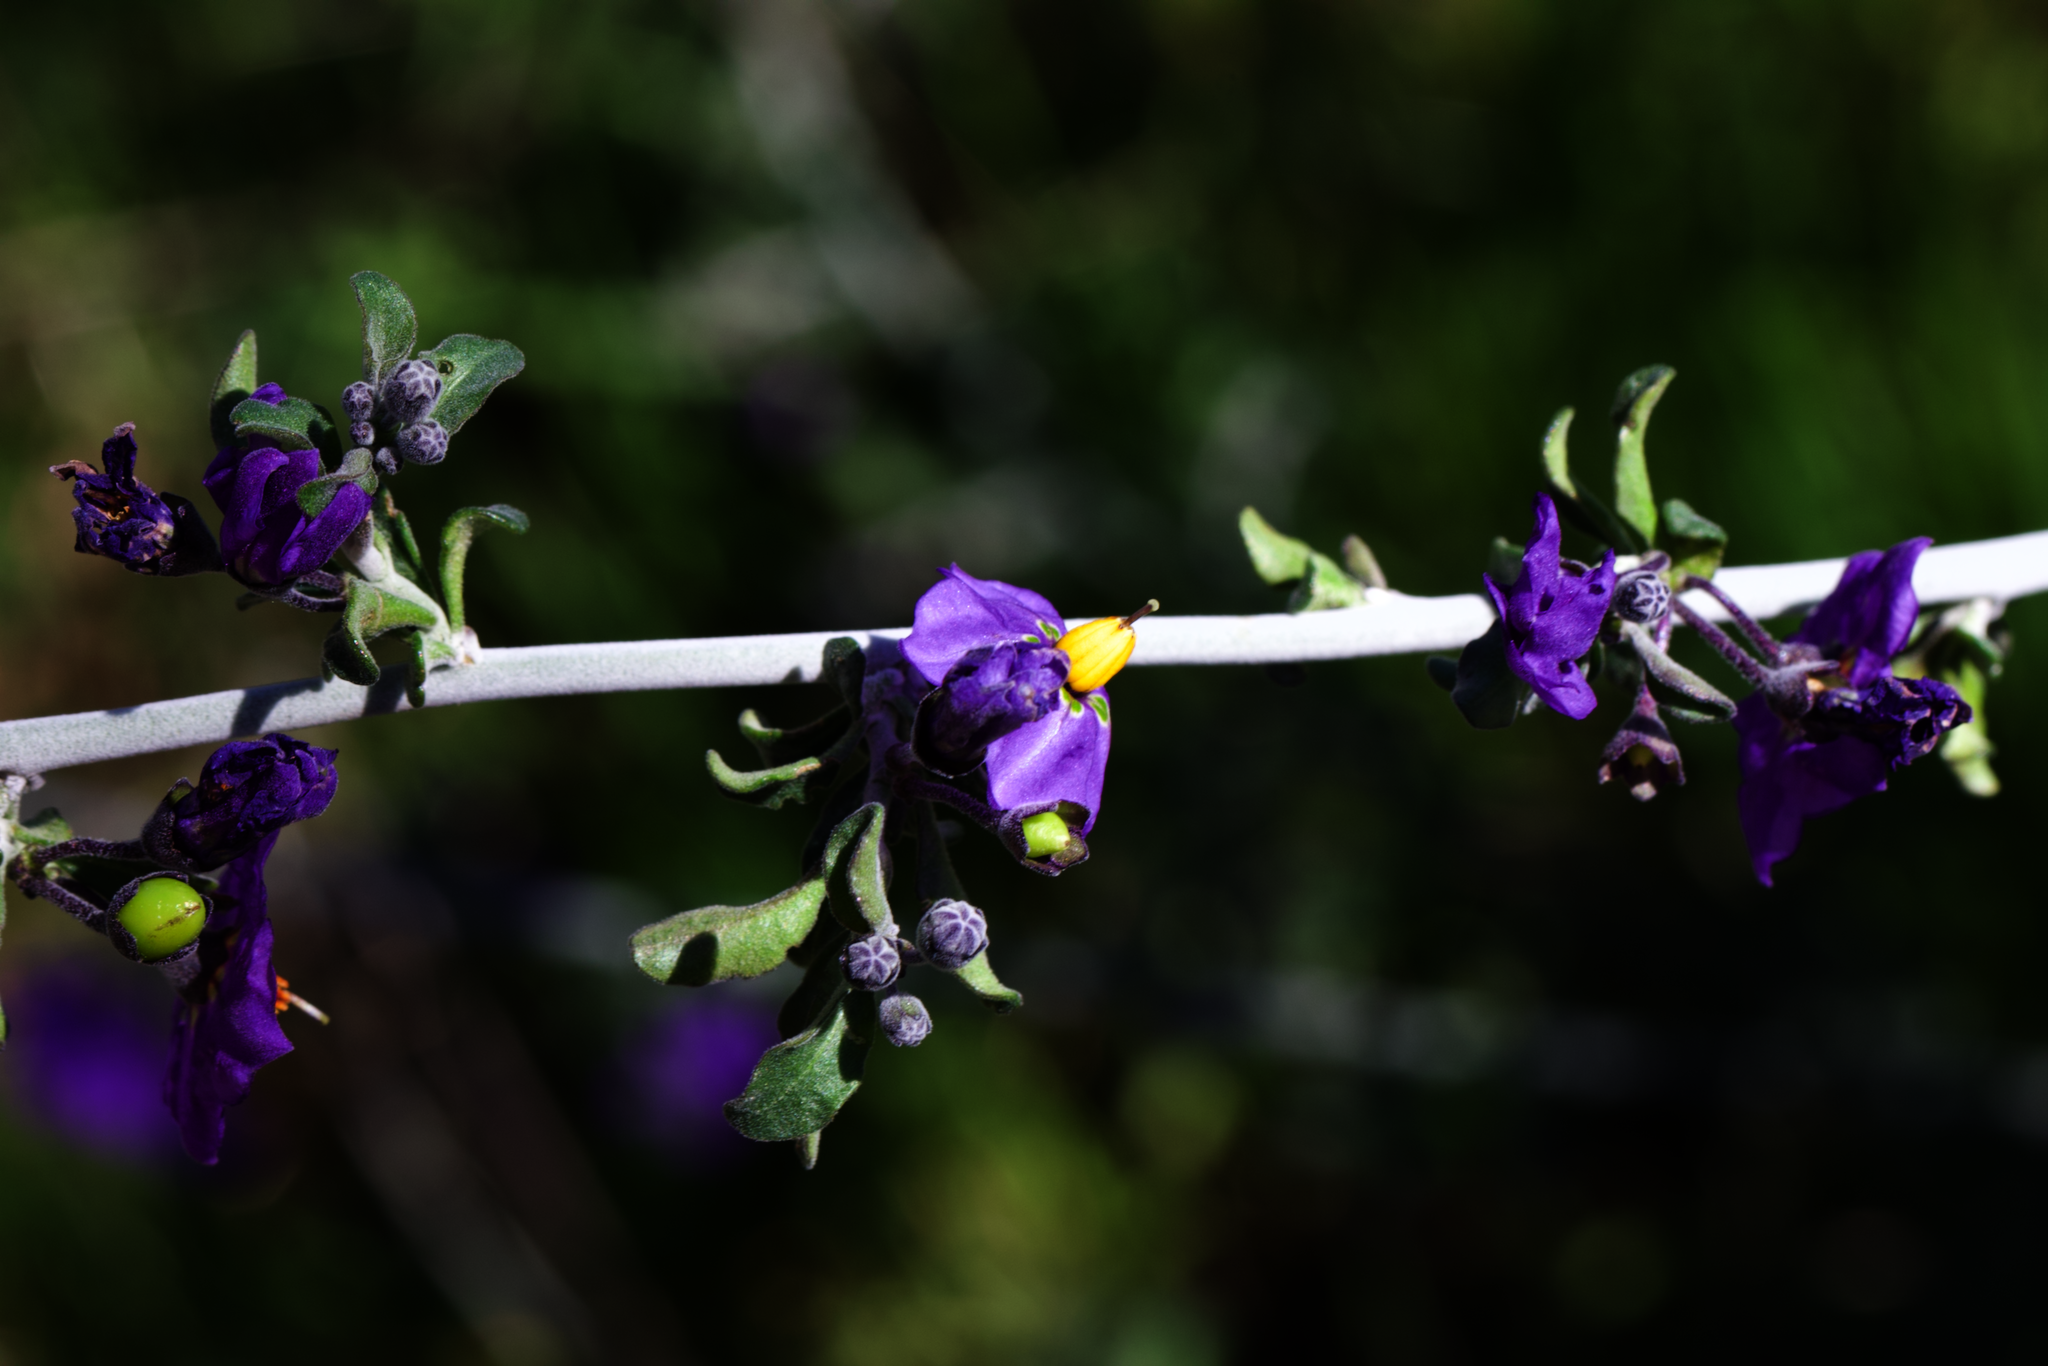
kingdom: Plantae
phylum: Tracheophyta
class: Magnoliopsida
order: Solanales
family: Solanaceae
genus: Solanum
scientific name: Solanum umbelliferum
